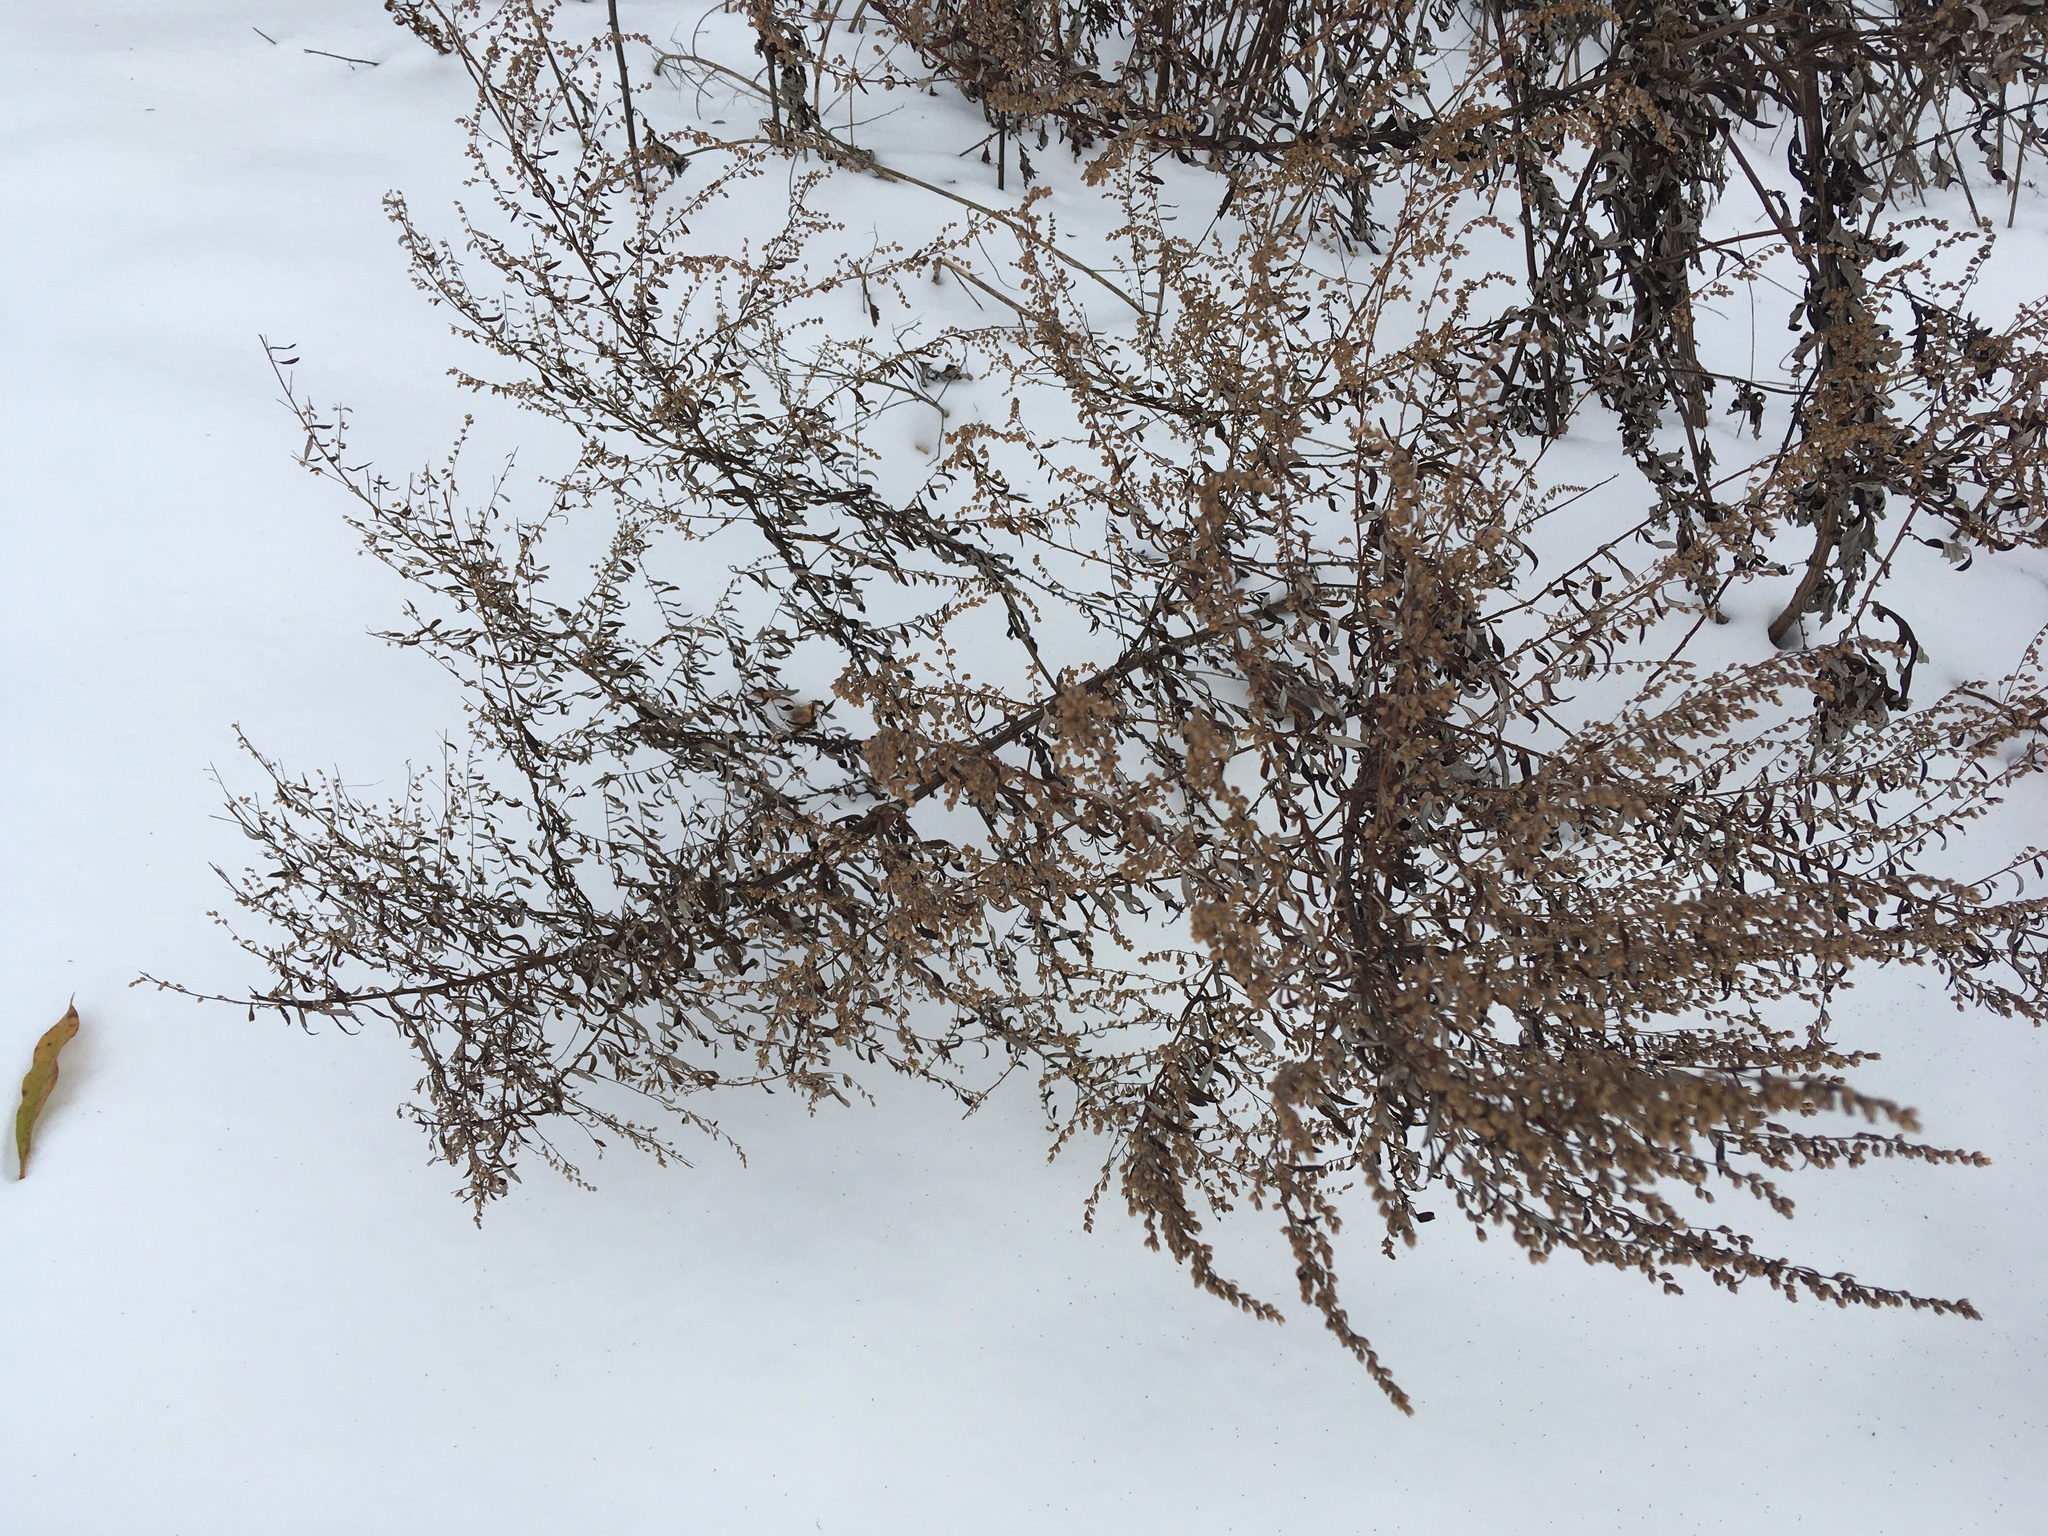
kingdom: Plantae
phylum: Tracheophyta
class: Magnoliopsida
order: Asterales
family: Asteraceae
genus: Artemisia
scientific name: Artemisia vulgaris
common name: Mugwort
